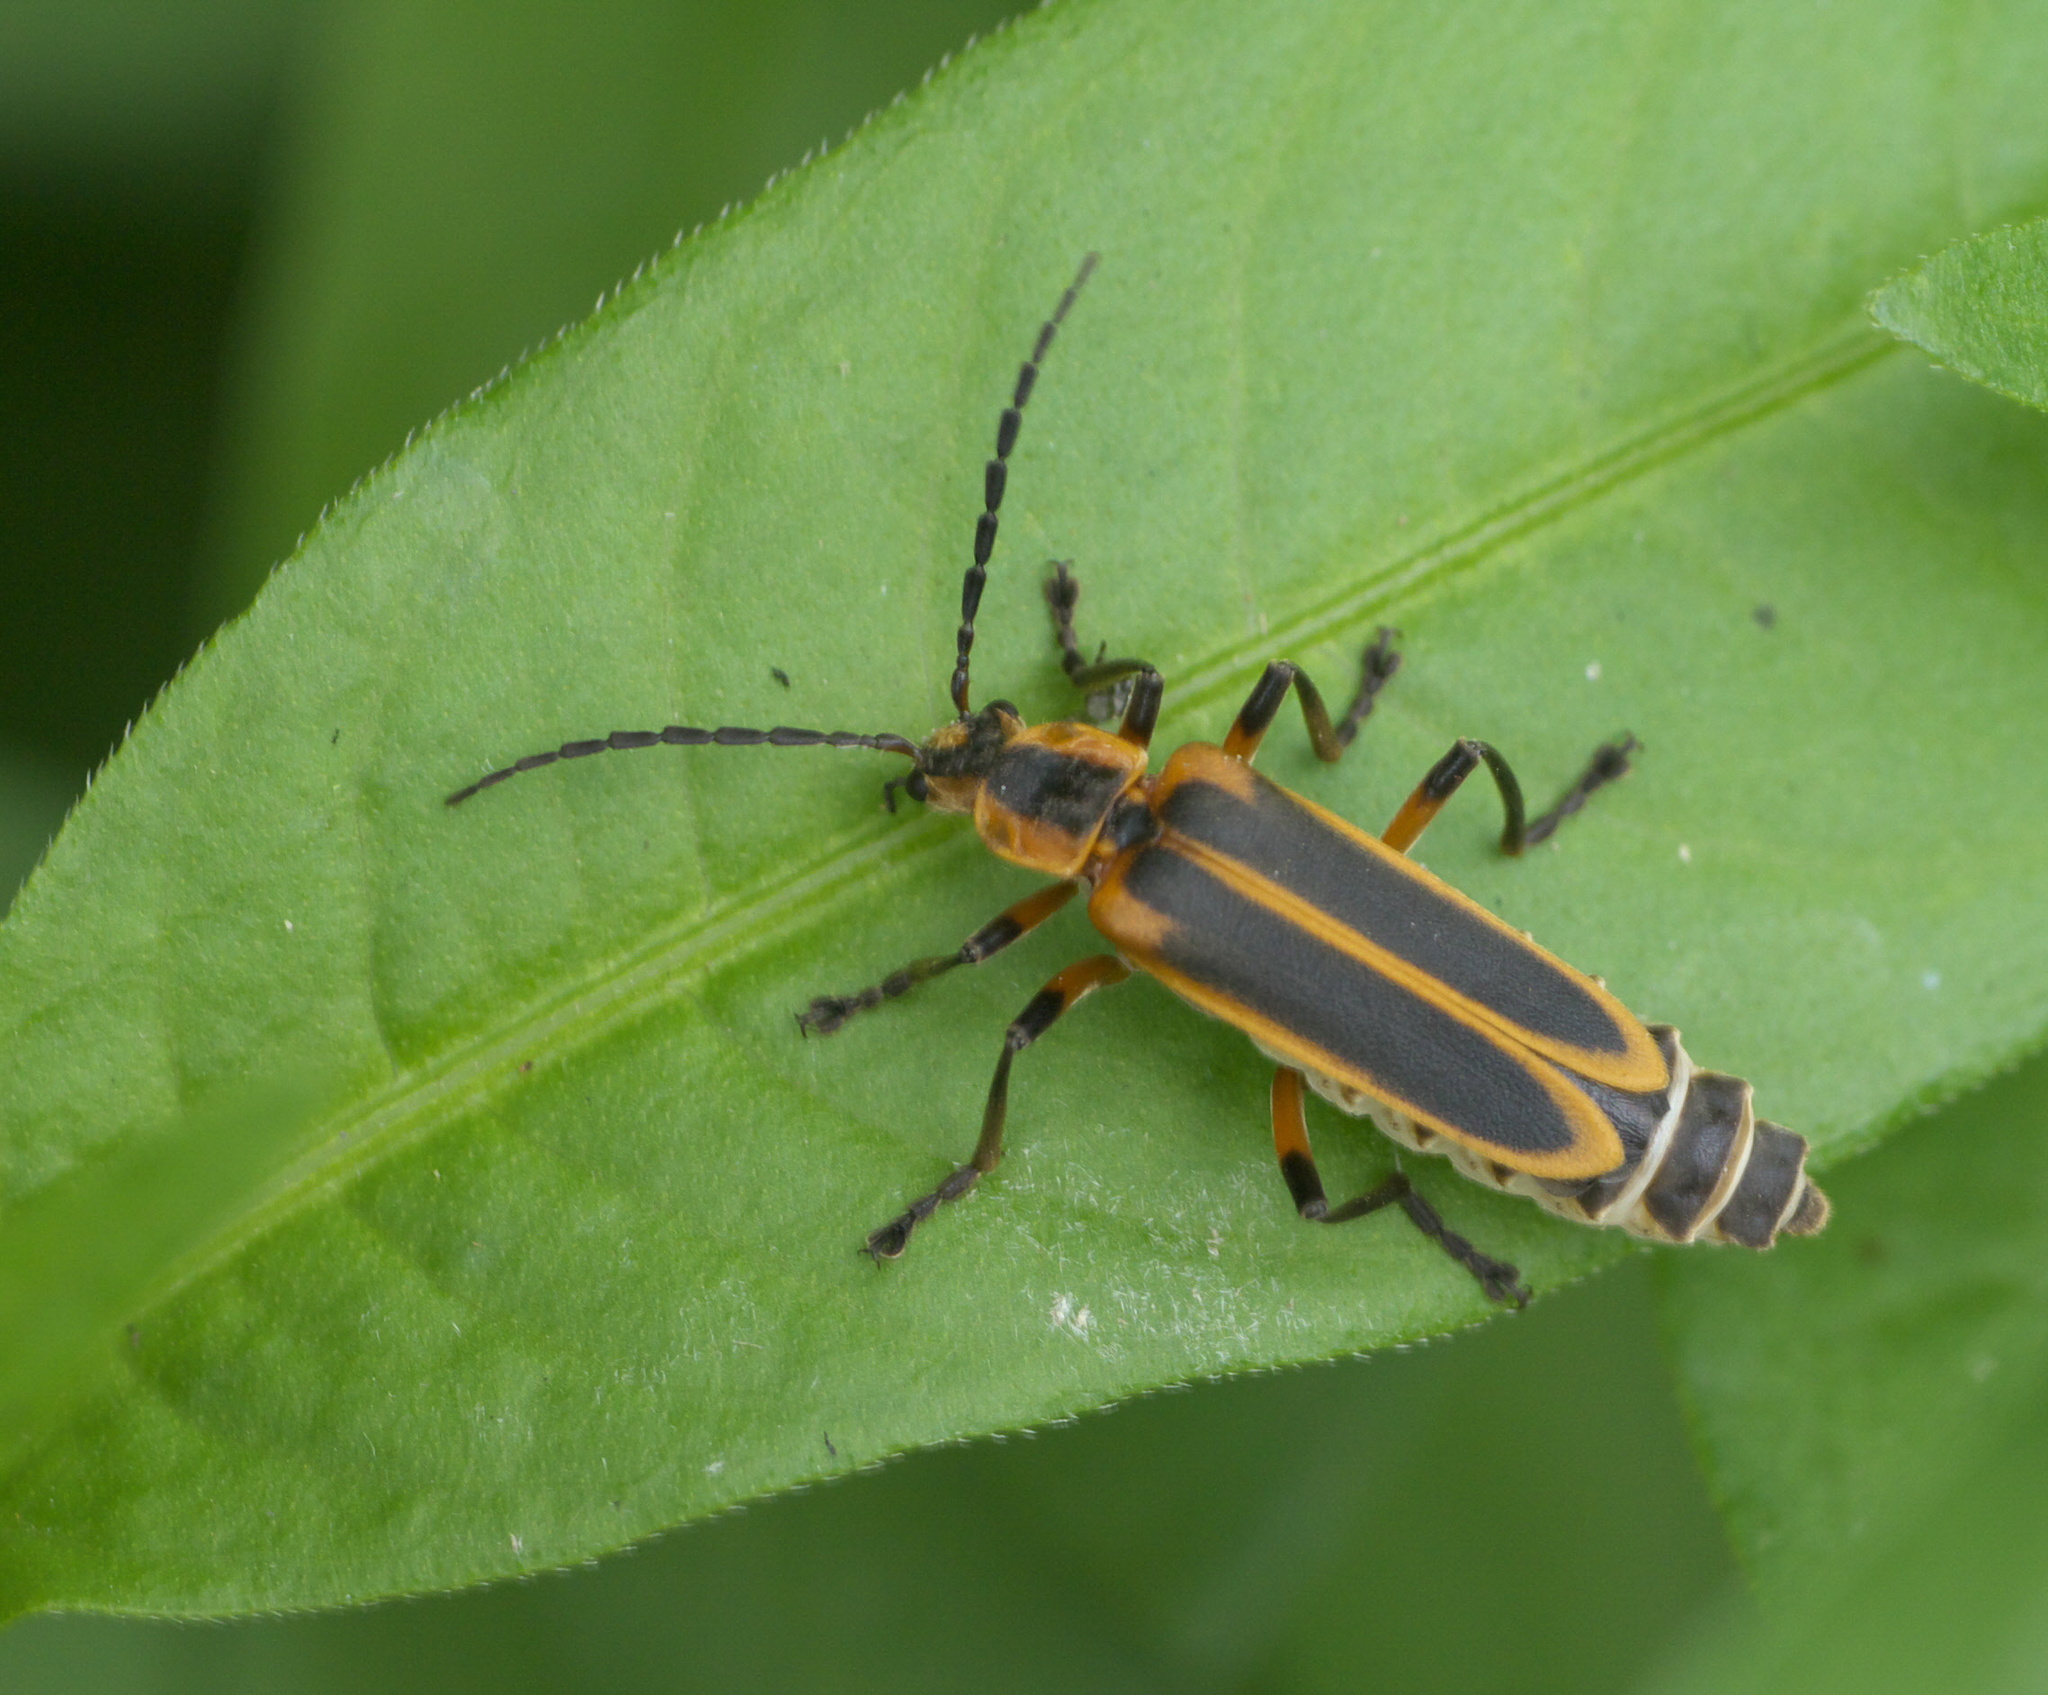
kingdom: Animalia
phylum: Arthropoda
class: Insecta
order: Coleoptera
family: Cantharidae
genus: Chauliognathus
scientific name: Chauliognathus marginatus
